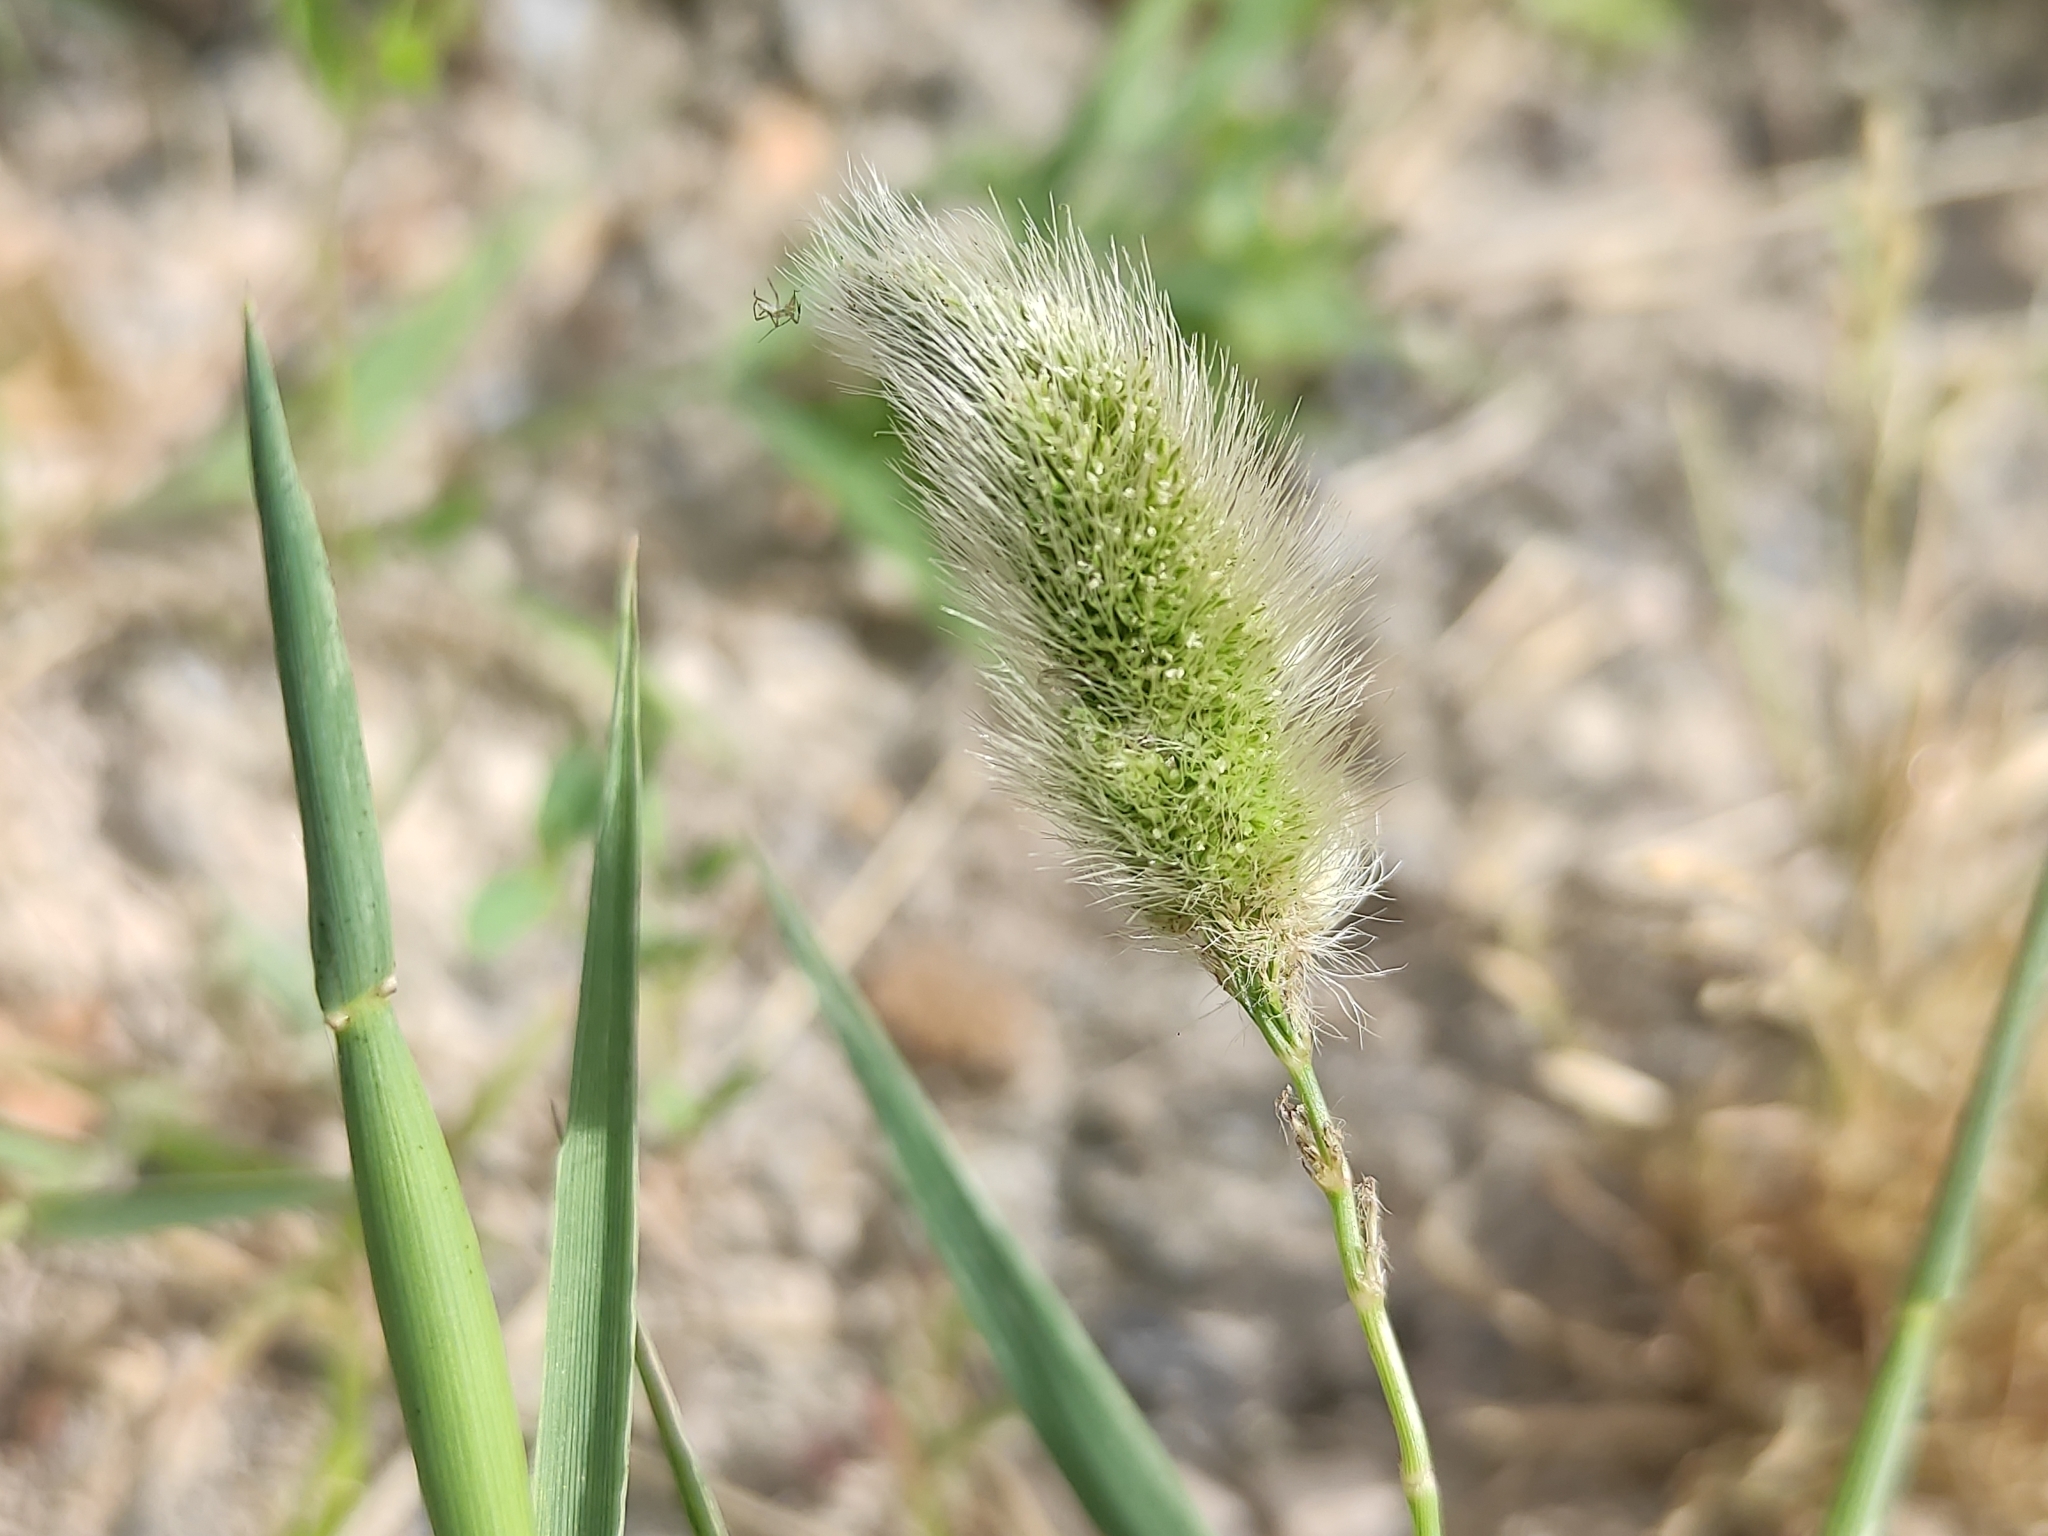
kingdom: Plantae
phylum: Tracheophyta
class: Liliopsida
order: Poales
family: Poaceae
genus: Polypogon
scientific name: Polypogon monspeliensis
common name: Annual rabbitsfoot grass
